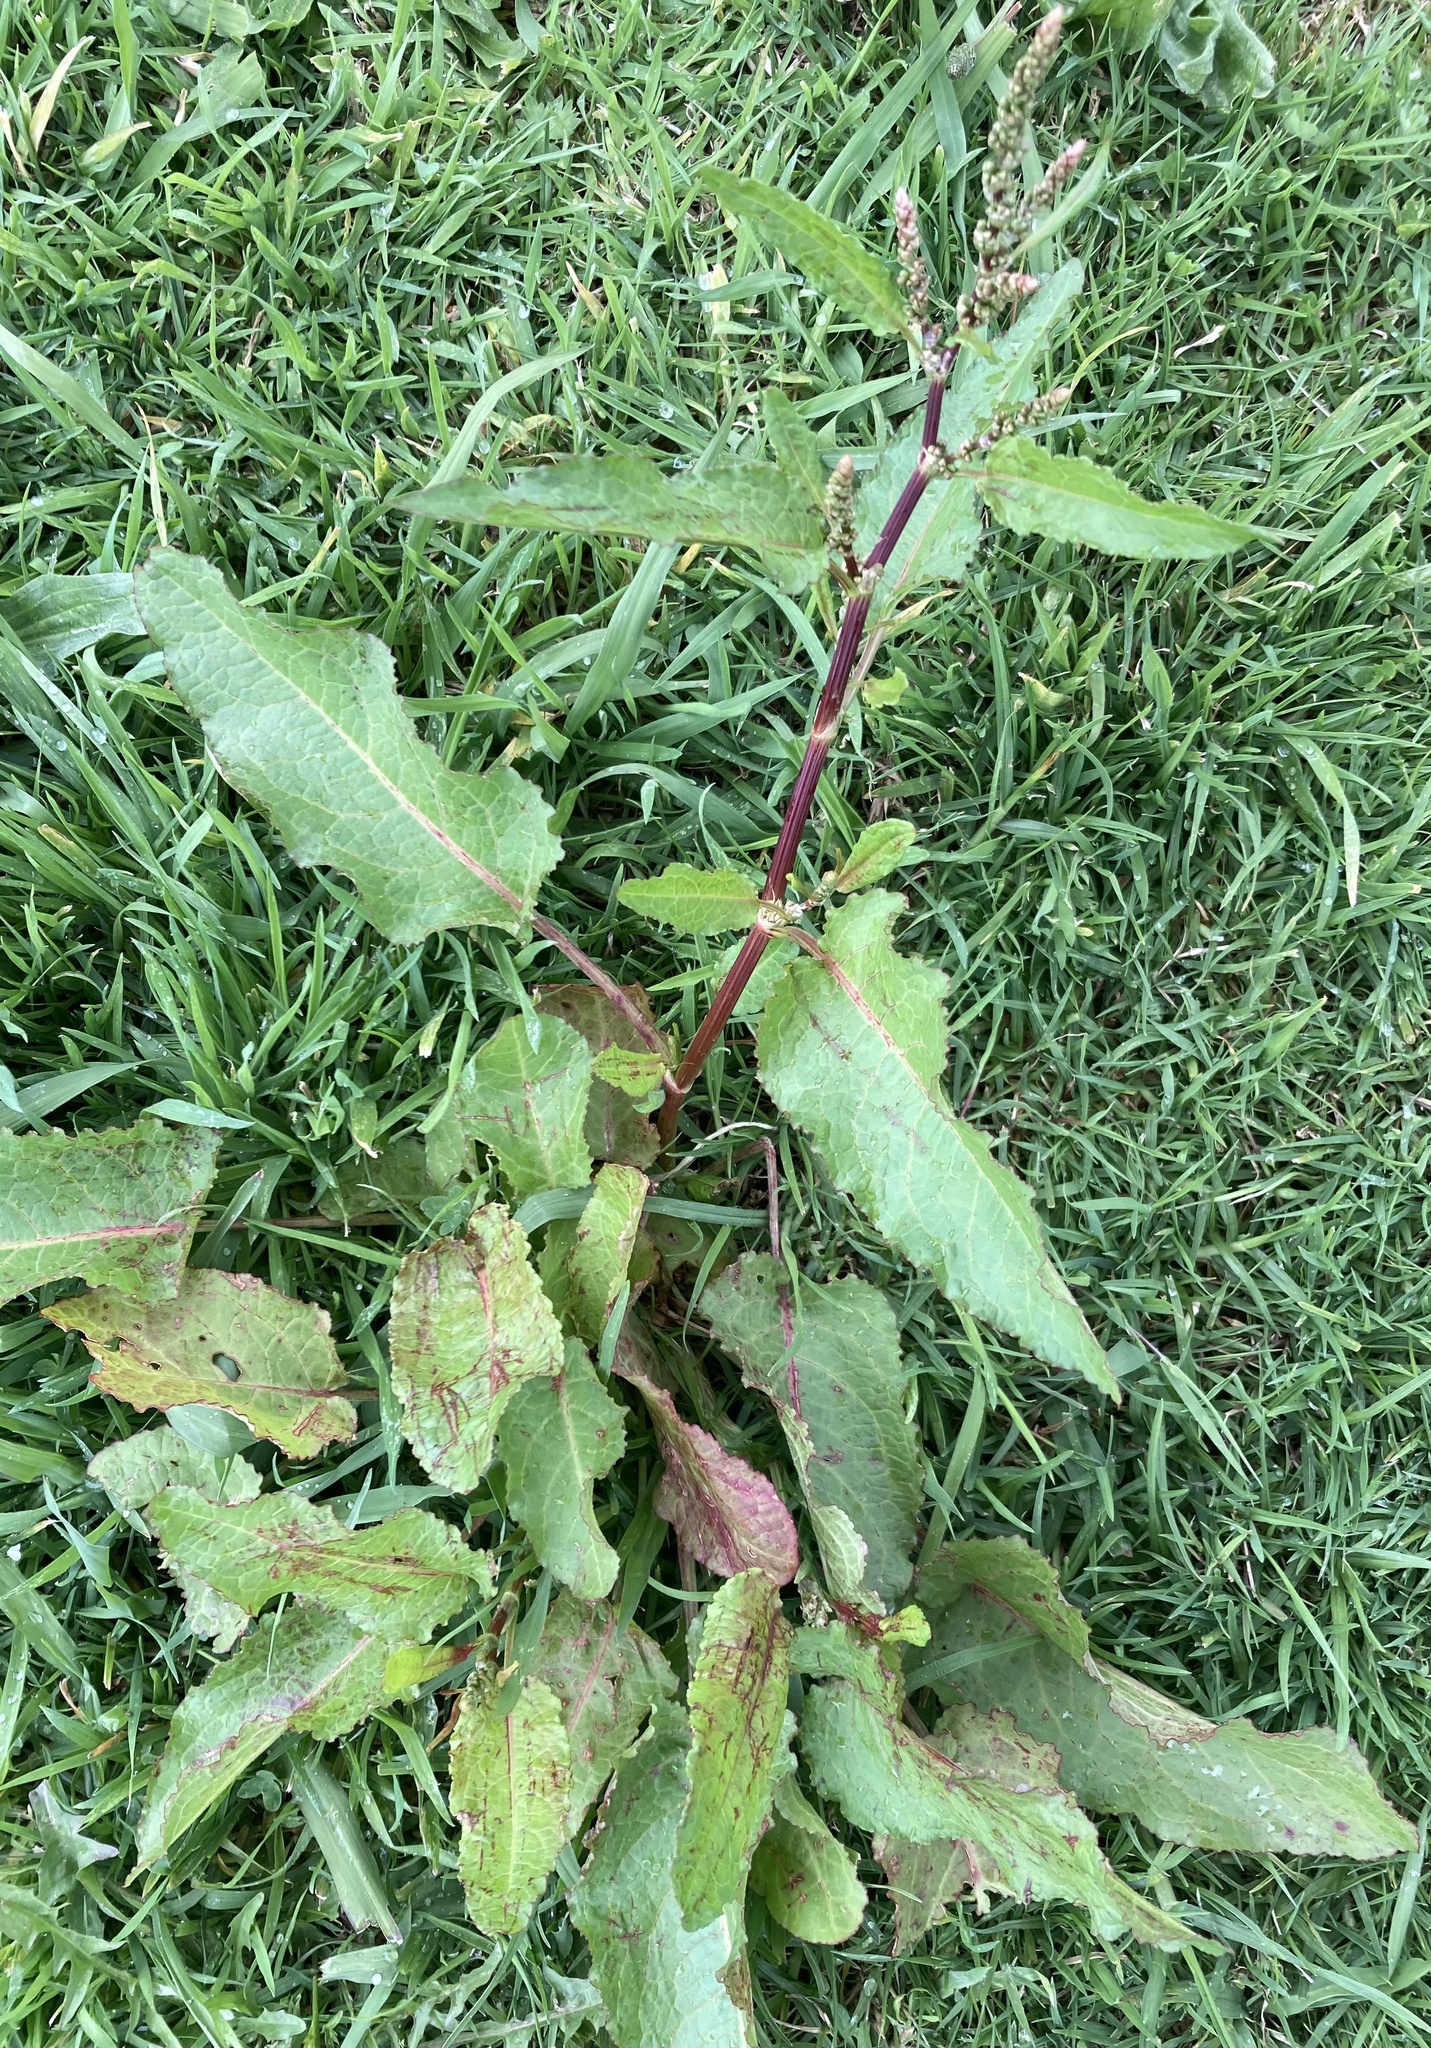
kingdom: Plantae
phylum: Tracheophyta
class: Magnoliopsida
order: Caryophyllales
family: Polygonaceae
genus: Rumex
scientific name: Rumex obtusifolius
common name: Bitter dock
